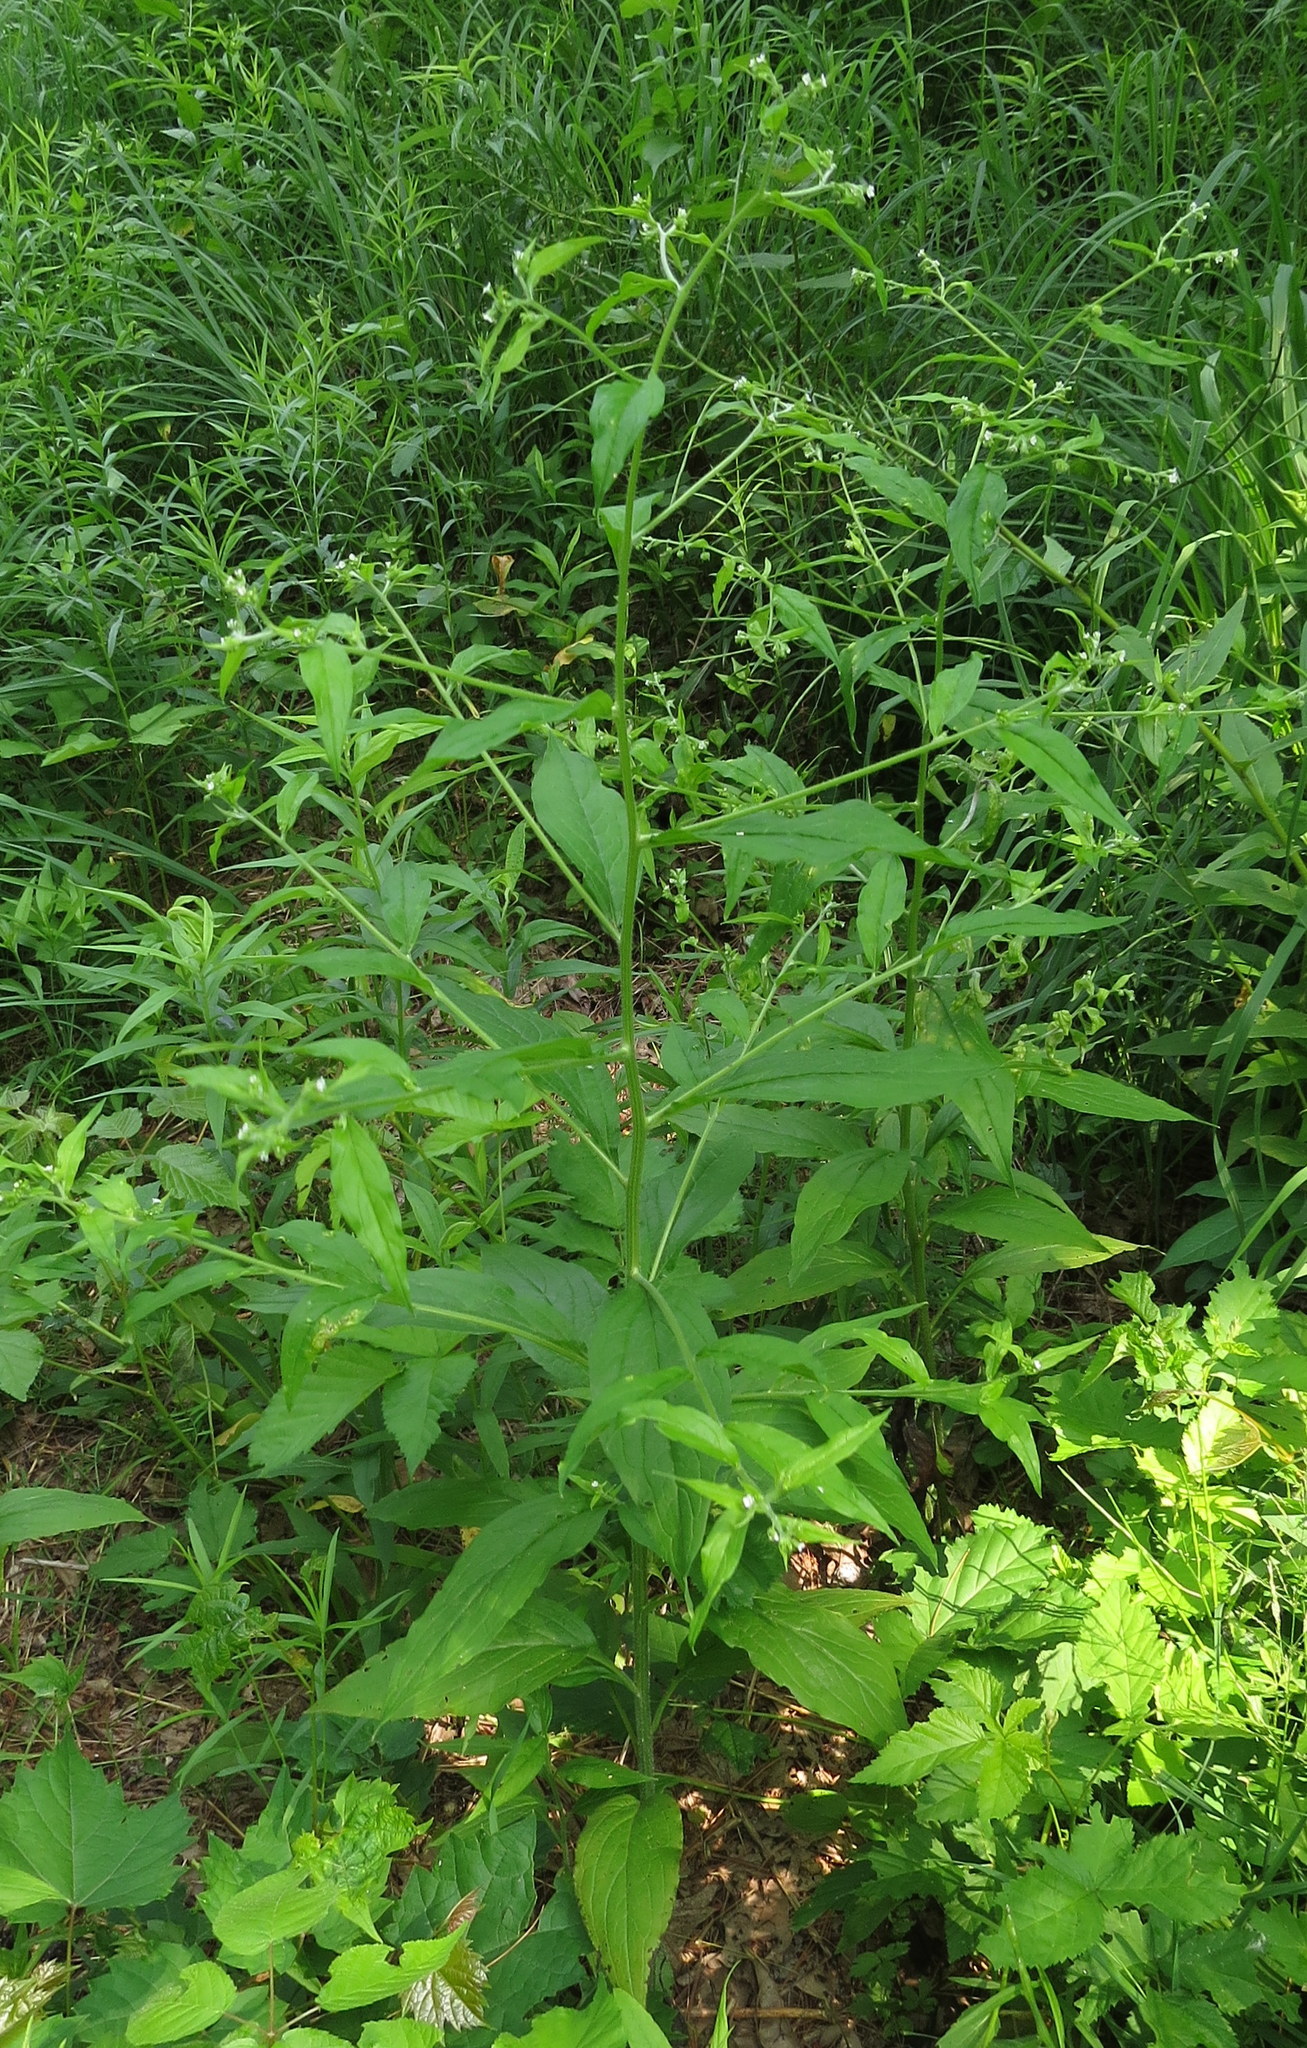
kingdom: Plantae
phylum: Tracheophyta
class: Magnoliopsida
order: Boraginales
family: Boraginaceae
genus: Hackelia
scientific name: Hackelia virginiana
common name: Beggar's-lice
